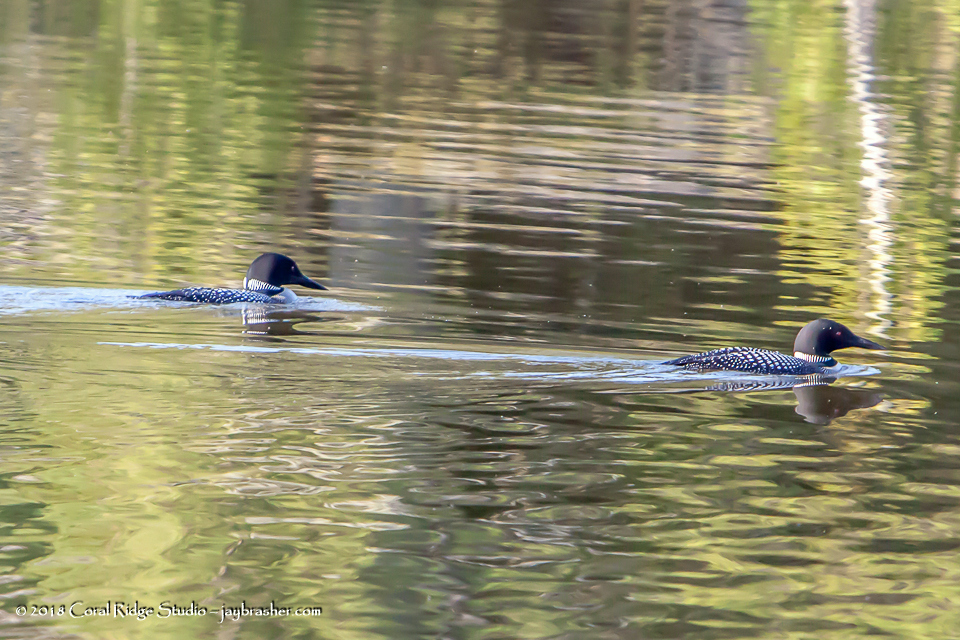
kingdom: Animalia
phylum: Chordata
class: Aves
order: Gaviiformes
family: Gaviidae
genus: Gavia
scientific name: Gavia immer
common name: Common loon
